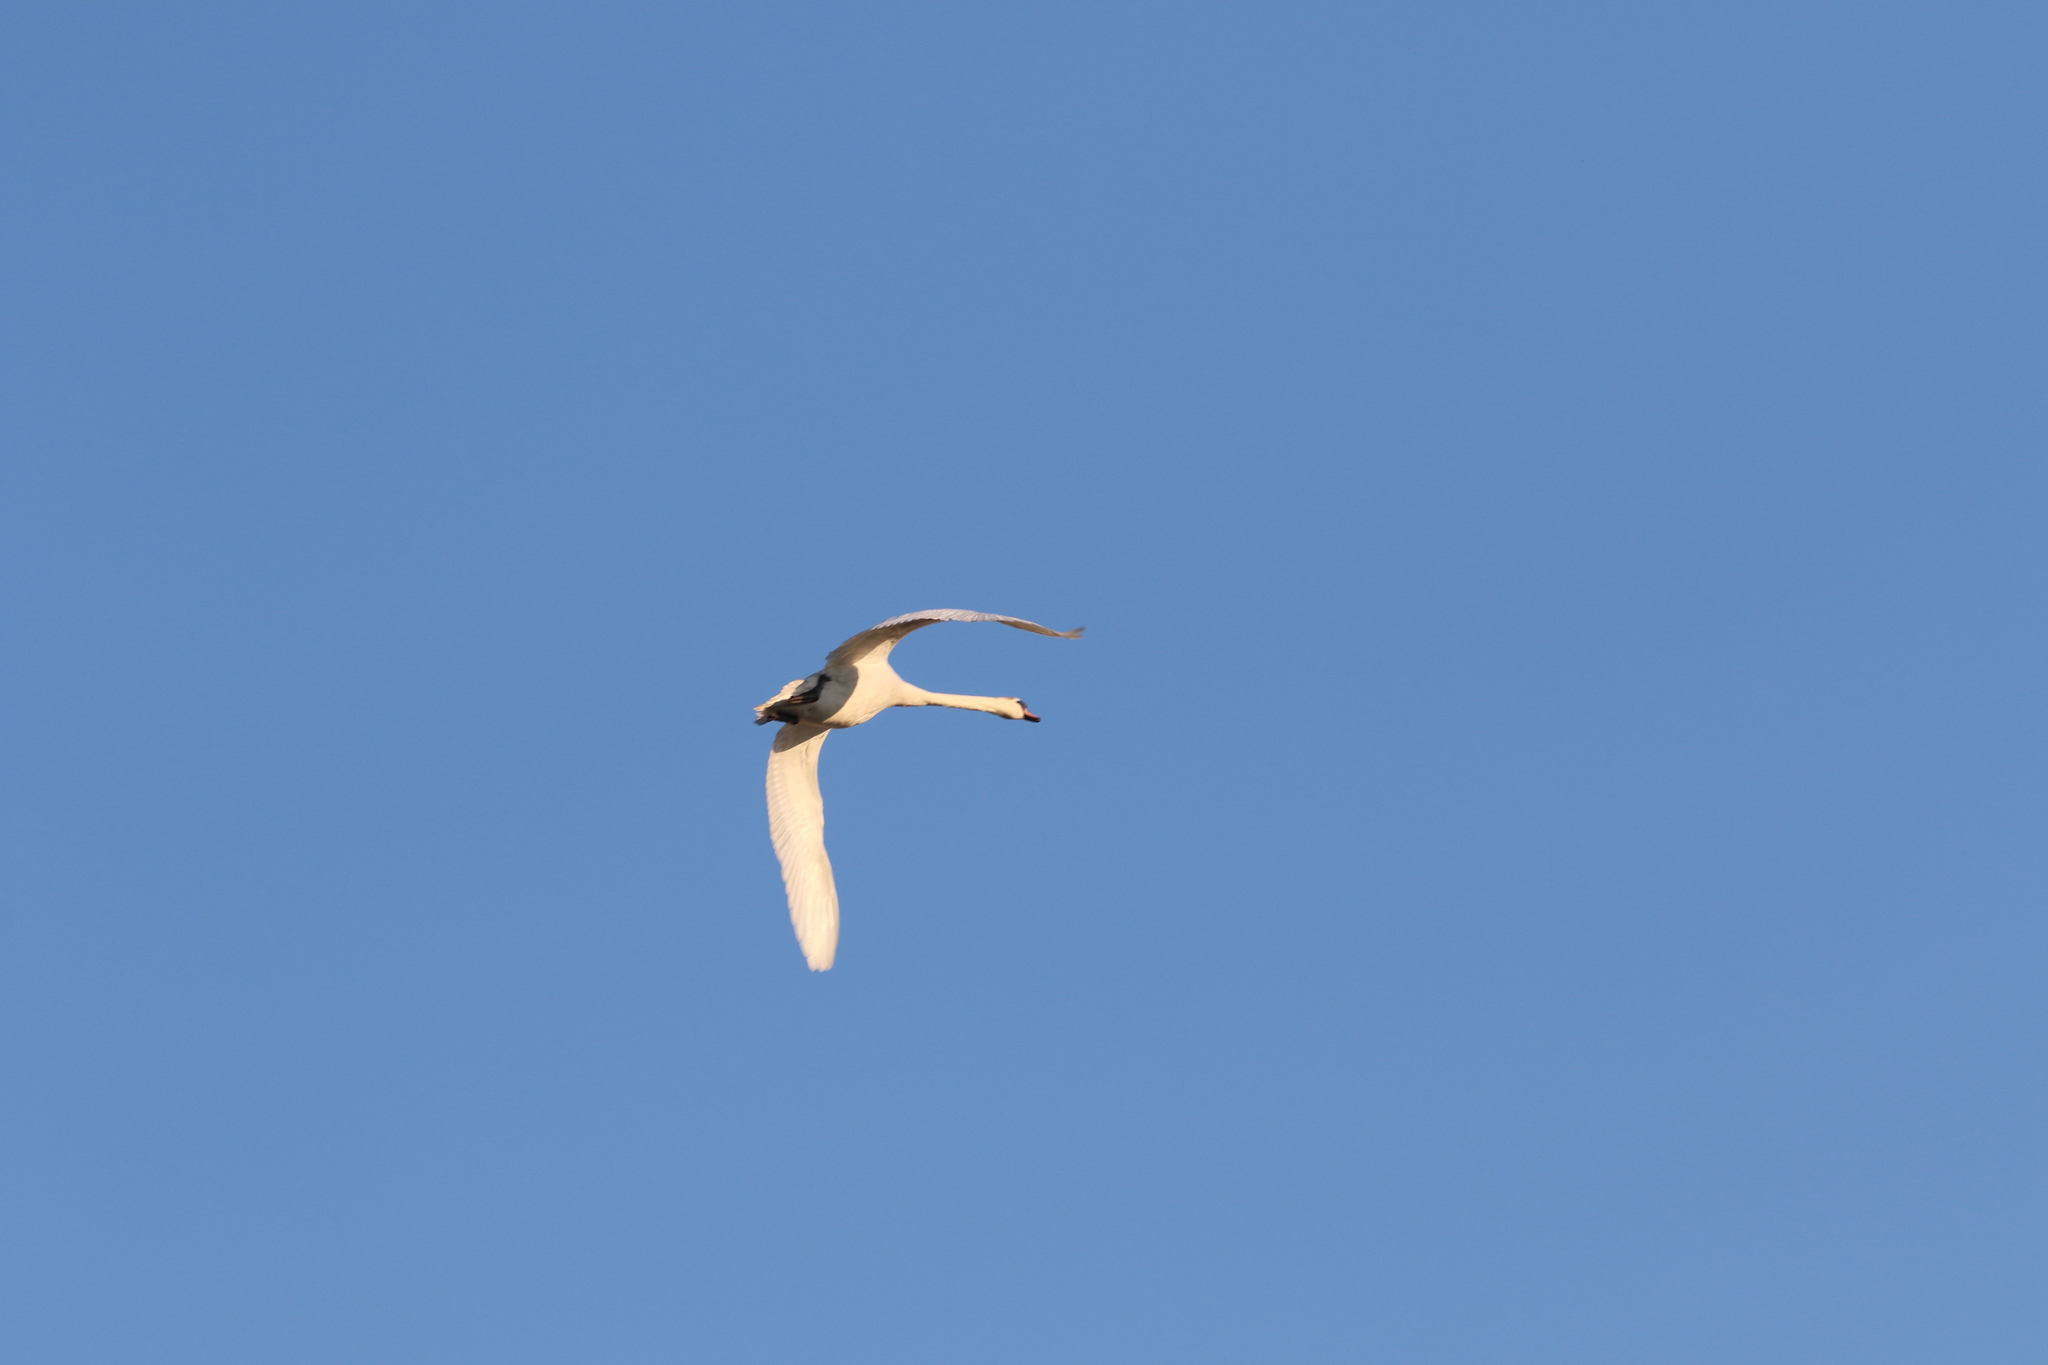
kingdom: Animalia
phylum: Chordata
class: Aves
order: Anseriformes
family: Anatidae
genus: Cygnus
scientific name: Cygnus olor
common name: Mute swan
